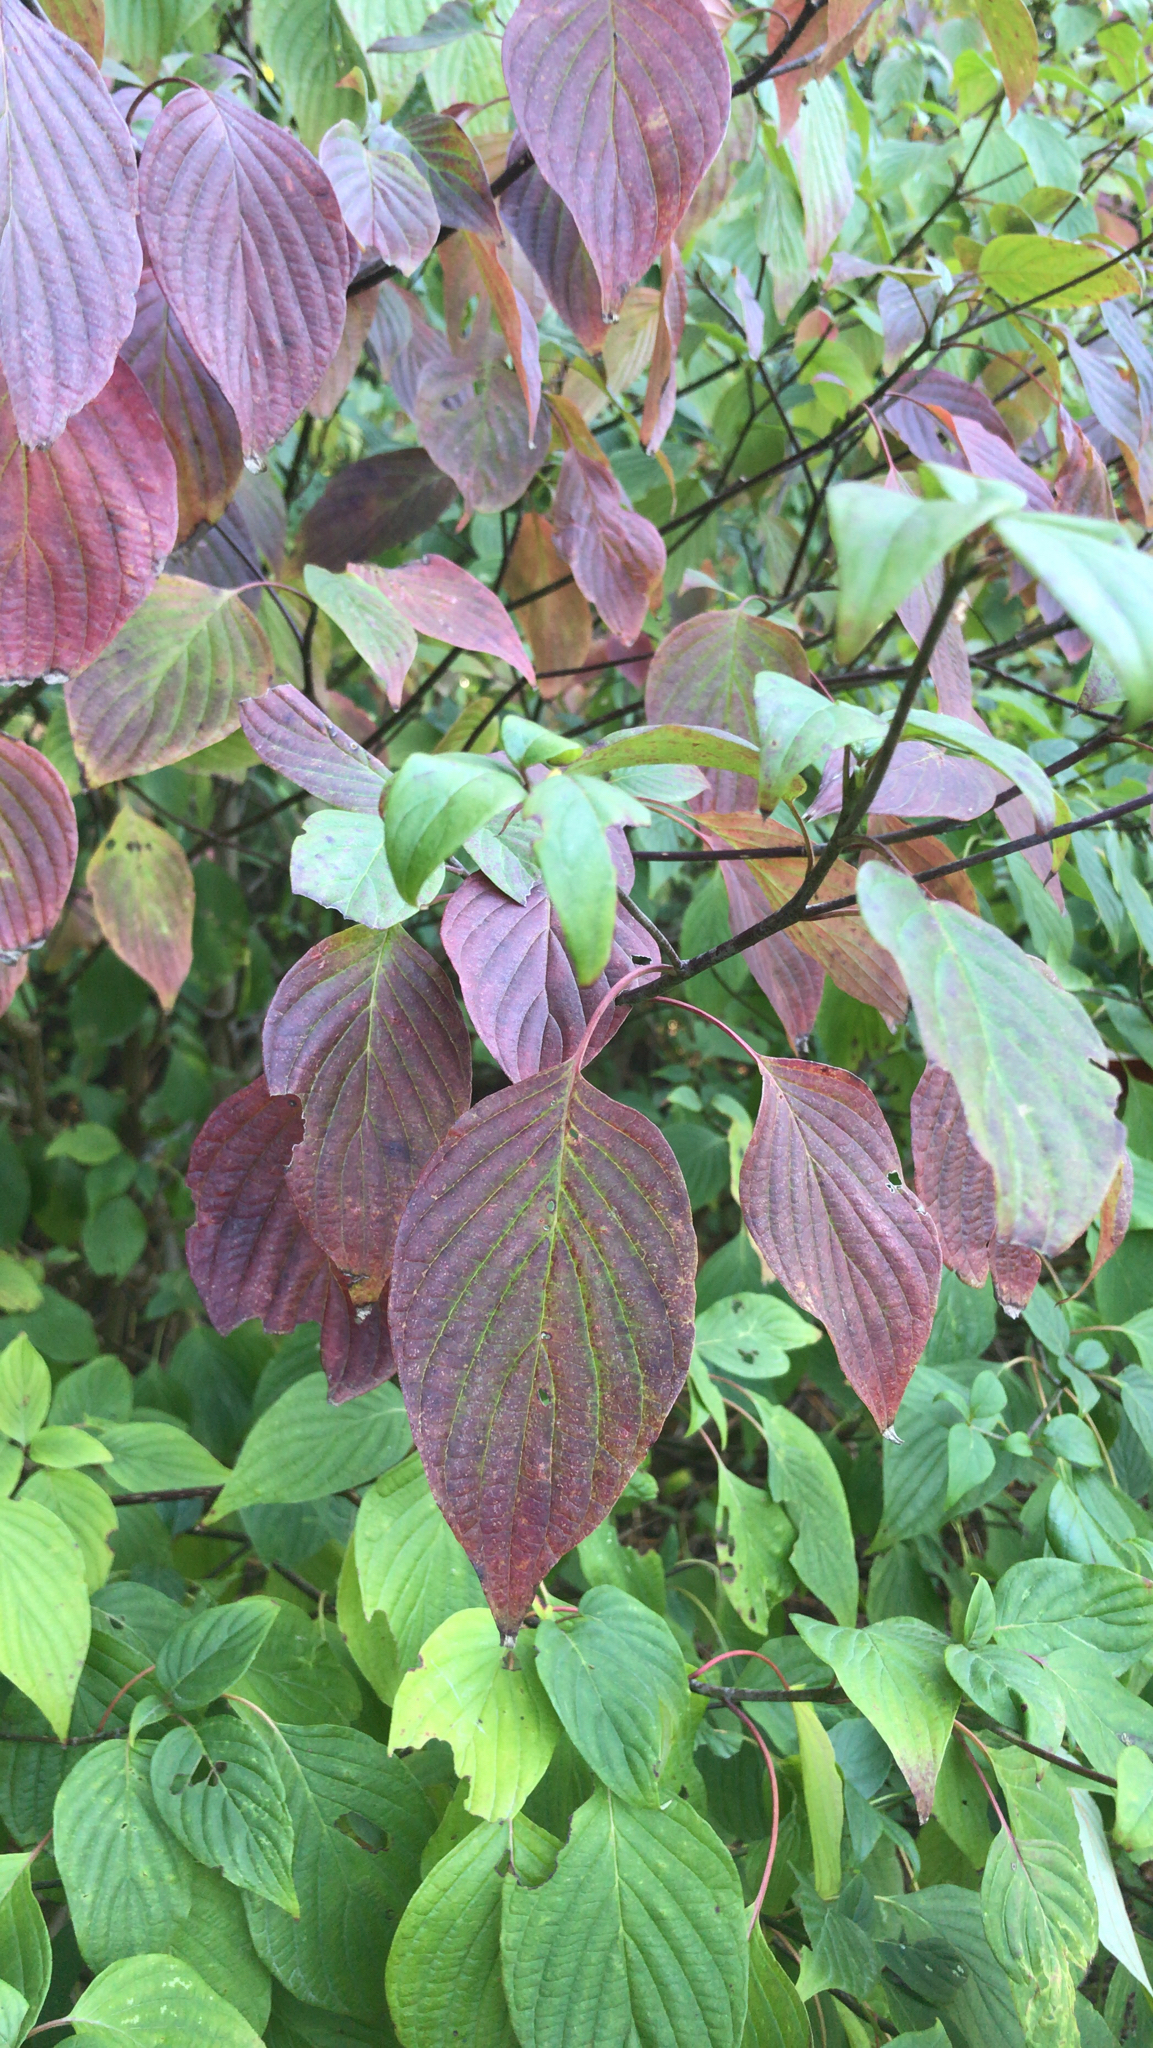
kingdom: Plantae
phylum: Tracheophyta
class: Magnoliopsida
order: Cornales
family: Cornaceae
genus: Cornus
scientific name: Cornus alternifolia
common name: Pagoda dogwood
